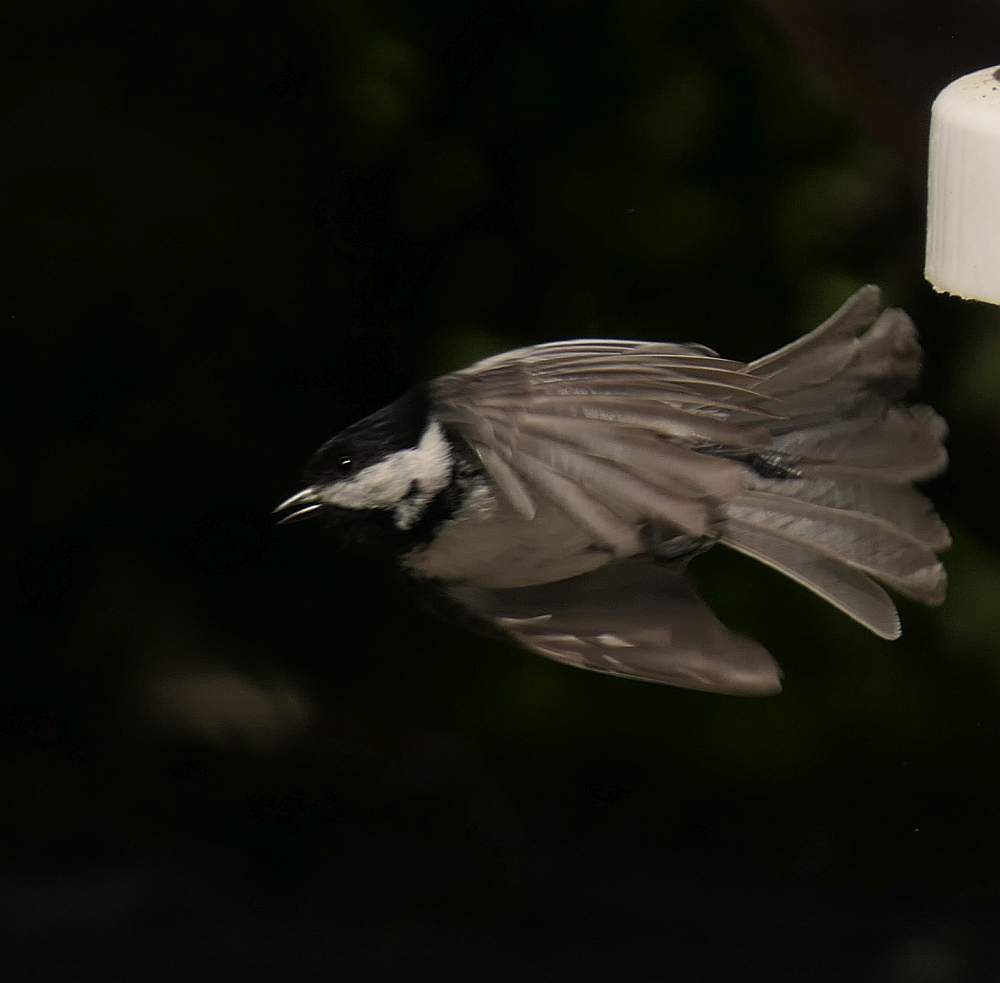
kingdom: Animalia
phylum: Chordata
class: Aves
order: Passeriformes
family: Paridae
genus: Poecile
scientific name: Poecile atricapillus
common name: Black-capped chickadee
